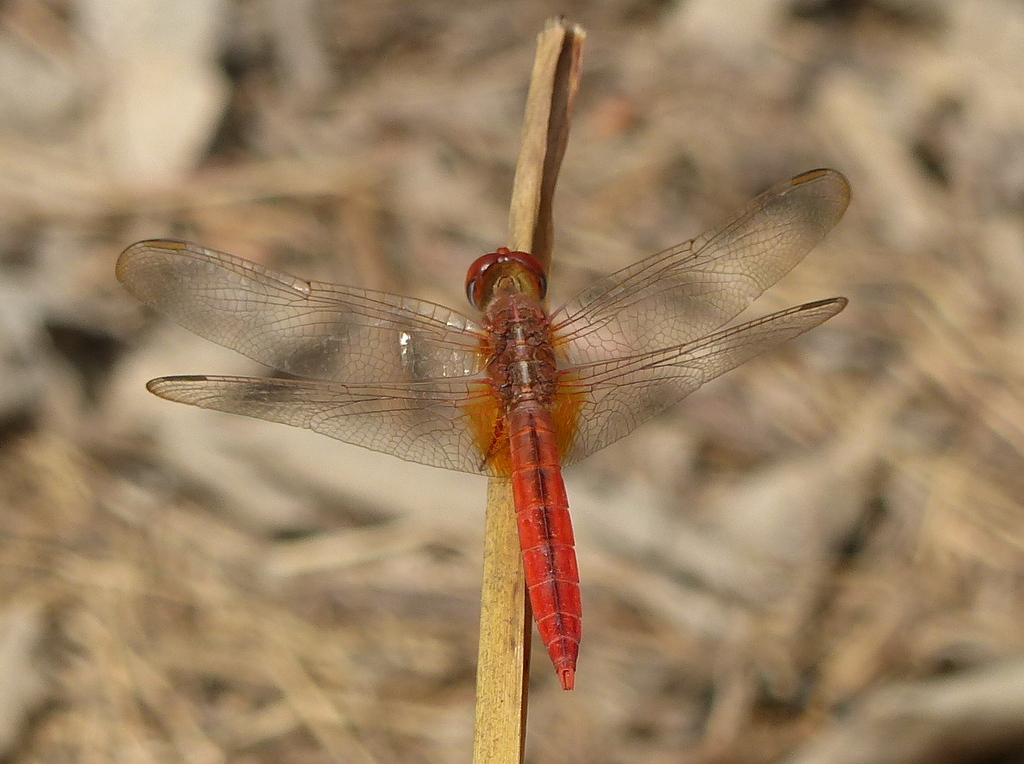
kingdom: Animalia
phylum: Arthropoda
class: Insecta
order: Odonata
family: Libellulidae
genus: Crocothemis
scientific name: Crocothemis servilia
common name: Scarlet skimmer
